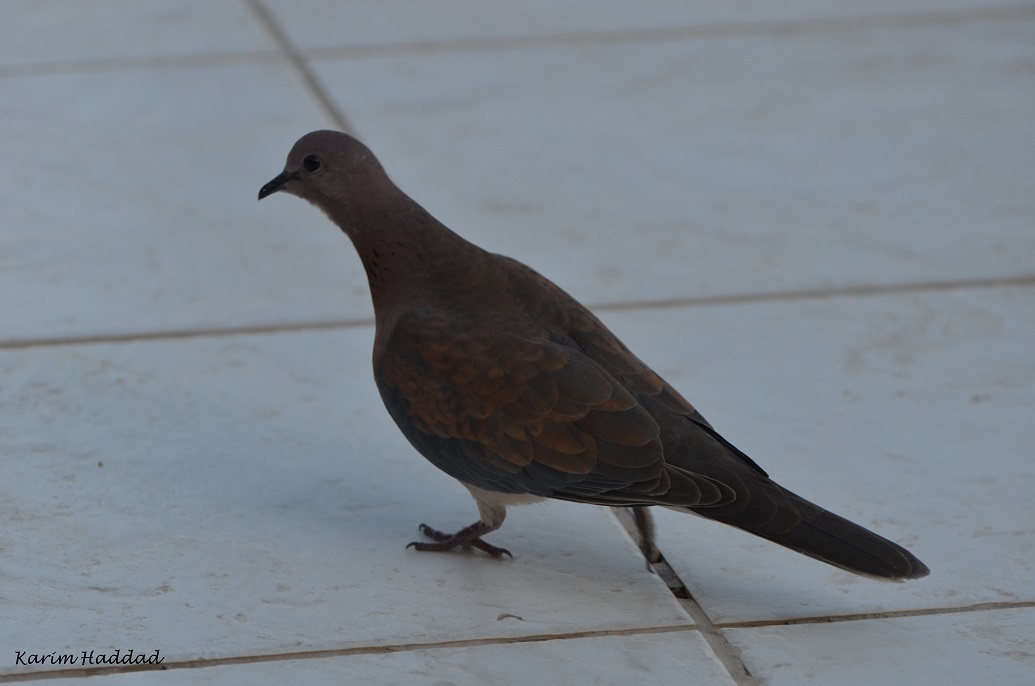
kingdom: Animalia
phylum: Chordata
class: Aves
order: Columbiformes
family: Columbidae
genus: Spilopelia
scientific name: Spilopelia senegalensis
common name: Laughing dove
